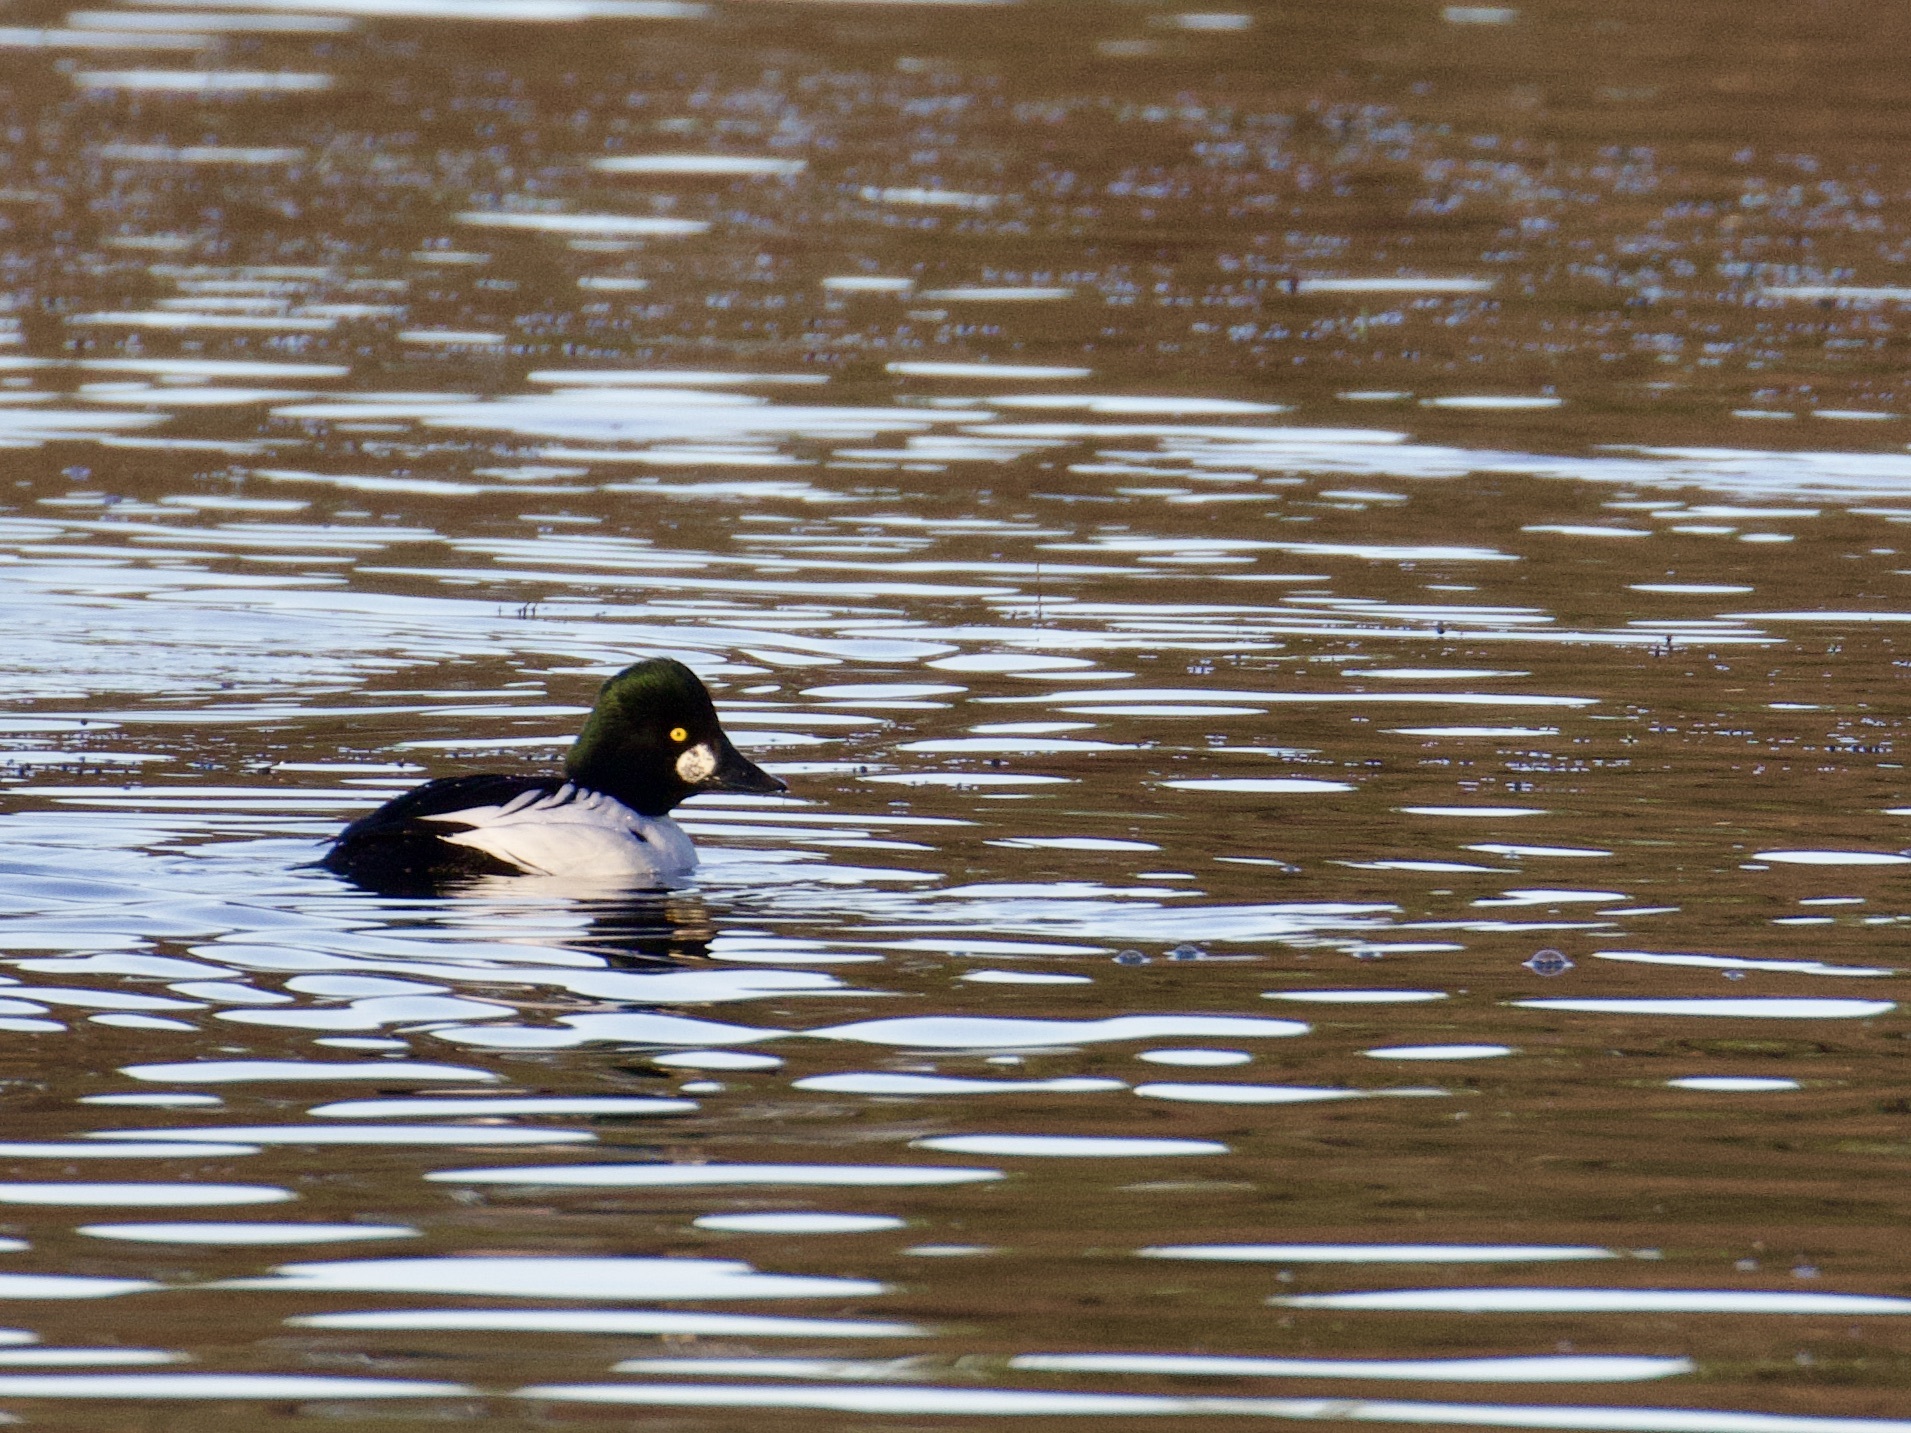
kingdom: Animalia
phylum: Chordata
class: Aves
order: Anseriformes
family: Anatidae
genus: Bucephala
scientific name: Bucephala clangula
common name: Common goldeneye
